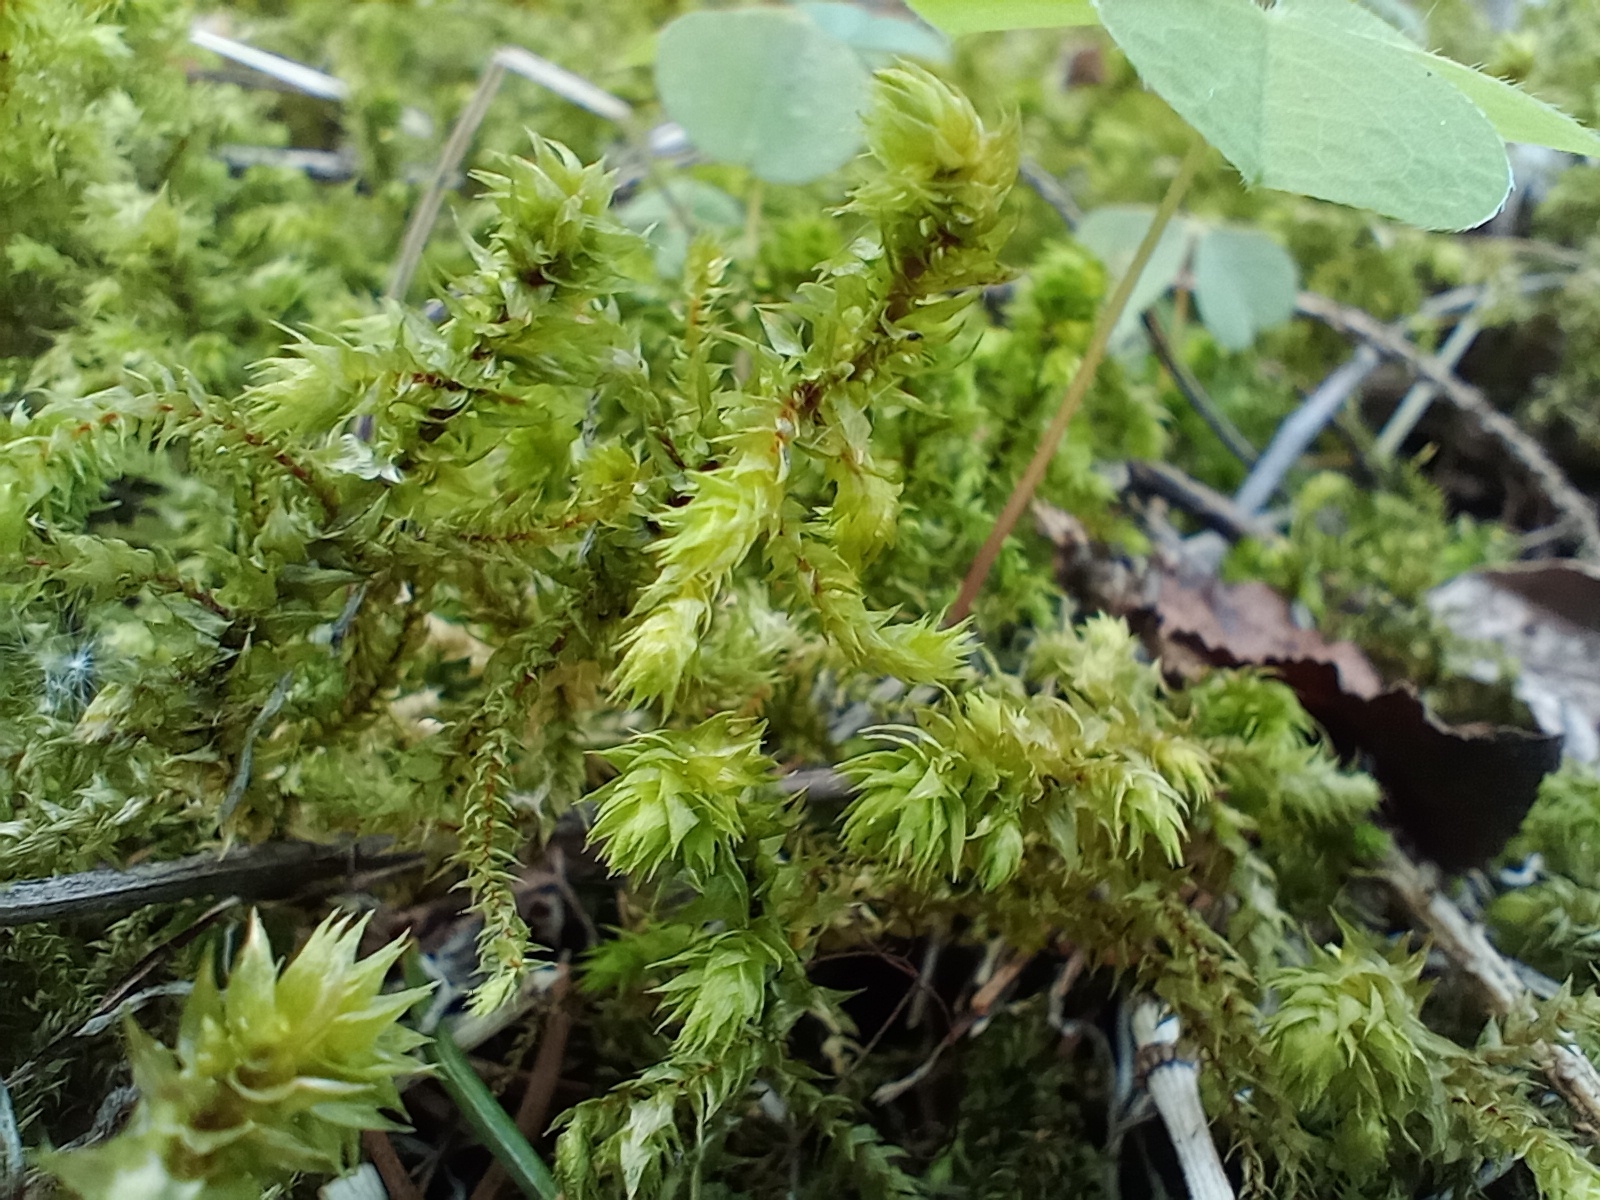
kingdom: Plantae
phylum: Bryophyta
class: Bryopsida
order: Hypnales
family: Hylocomiaceae
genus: Hylocomiadelphus
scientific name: Hylocomiadelphus triquetrus
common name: Rough goose neck moss
